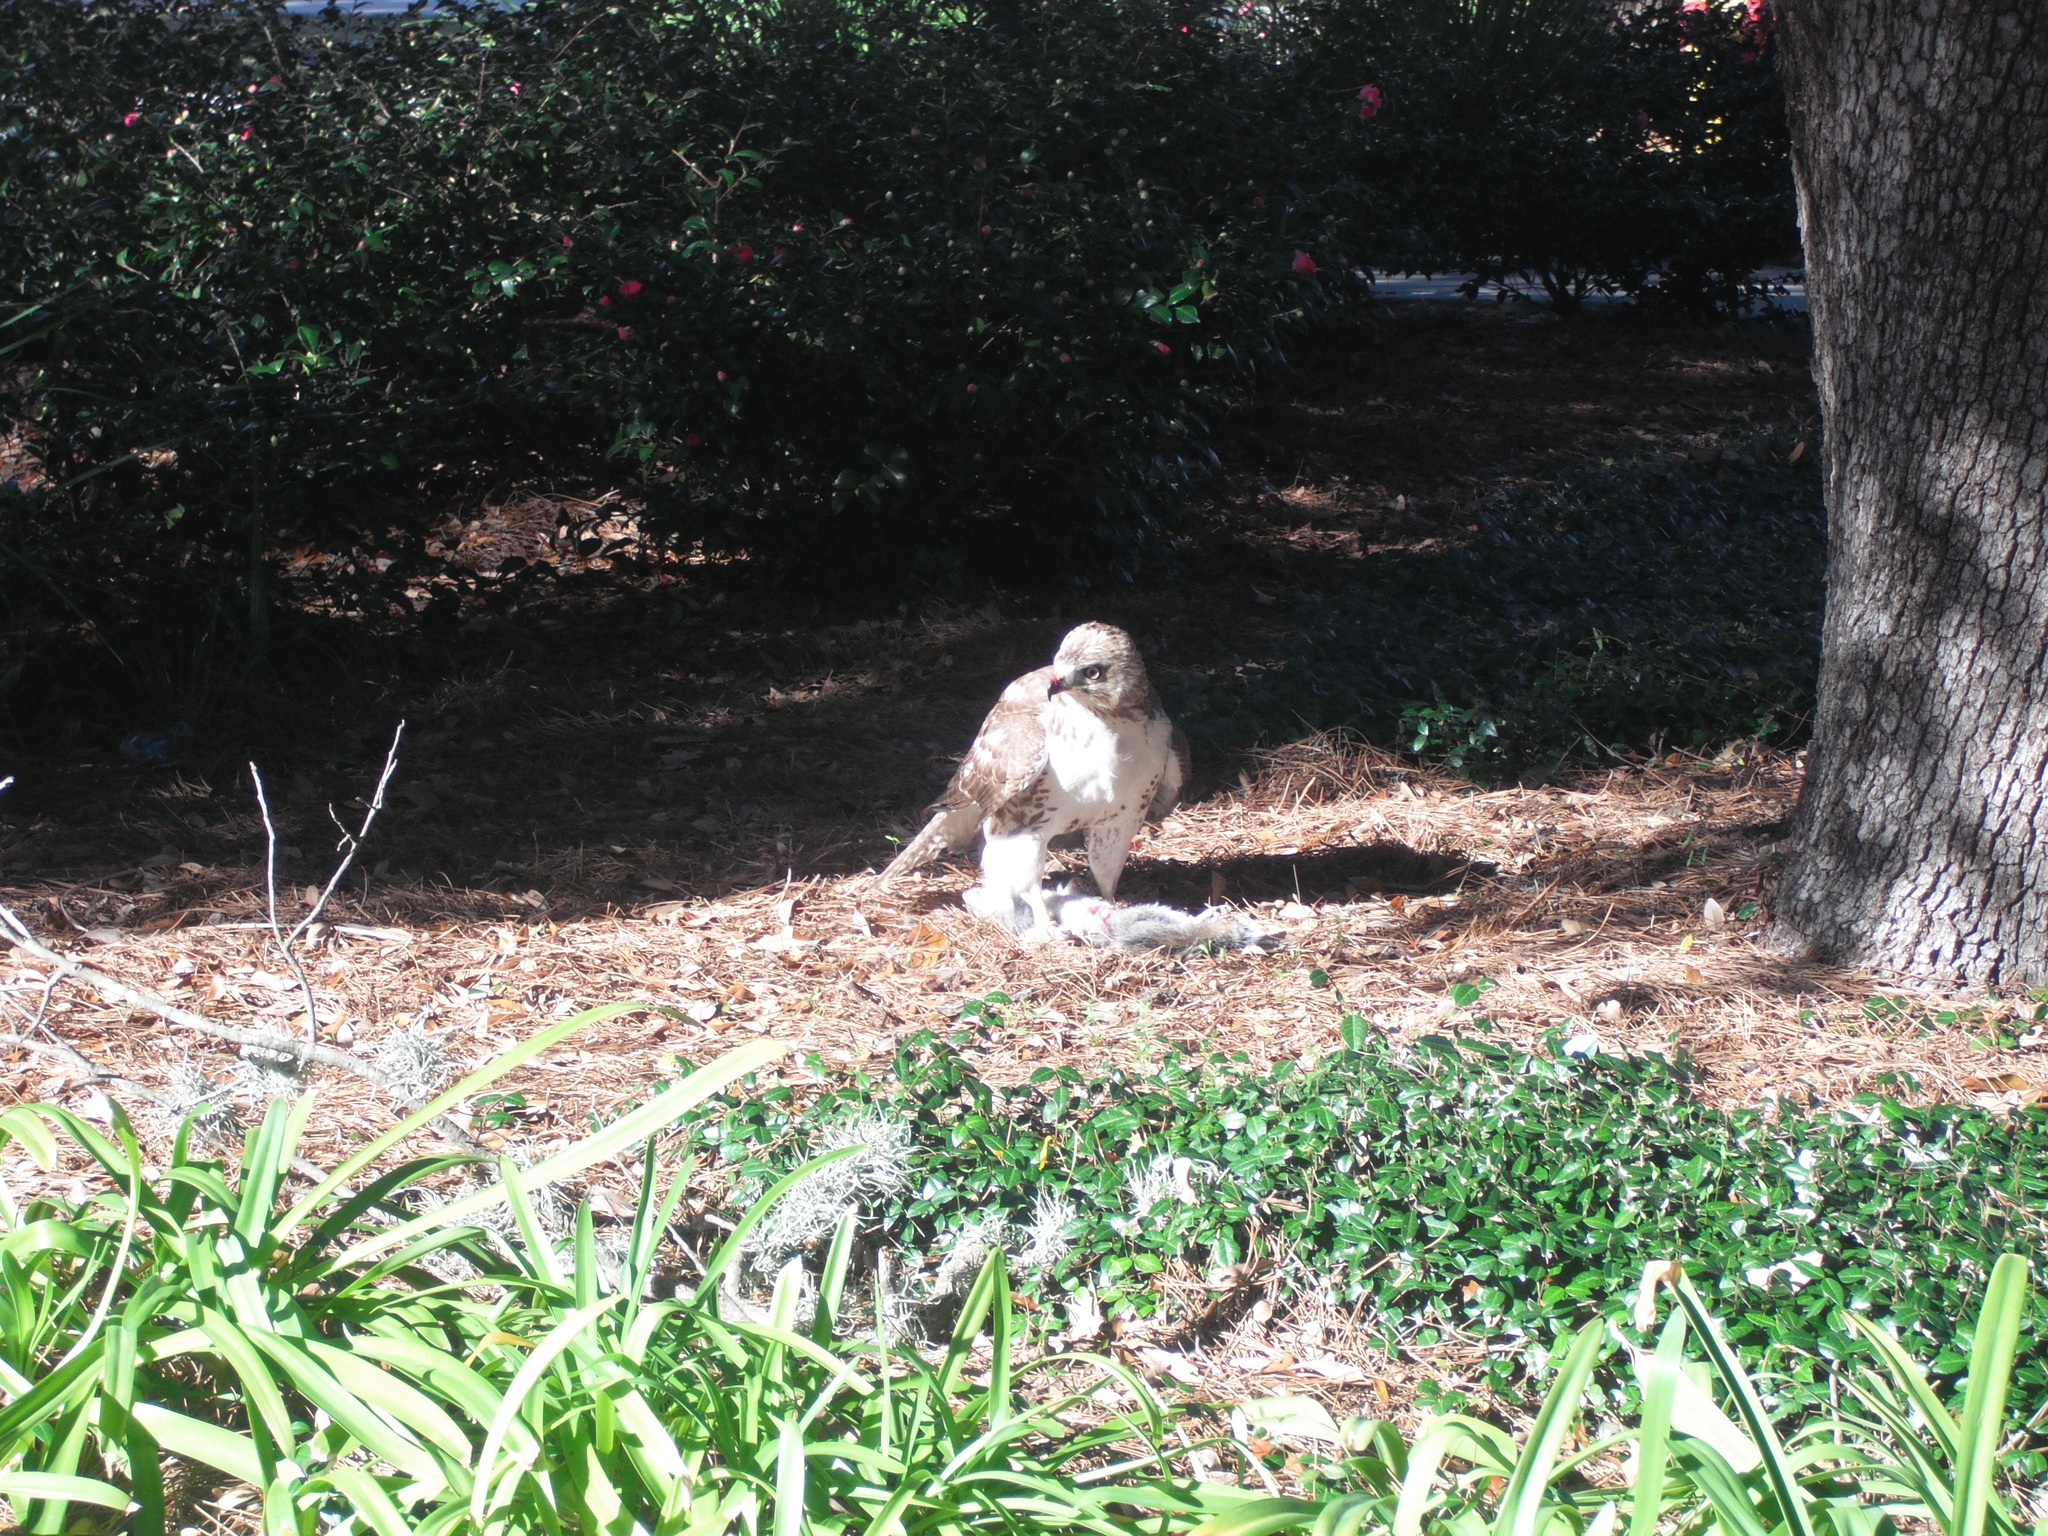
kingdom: Animalia
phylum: Chordata
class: Aves
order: Accipitriformes
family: Accipitridae
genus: Buteo
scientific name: Buteo jamaicensis
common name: Red-tailed hawk
